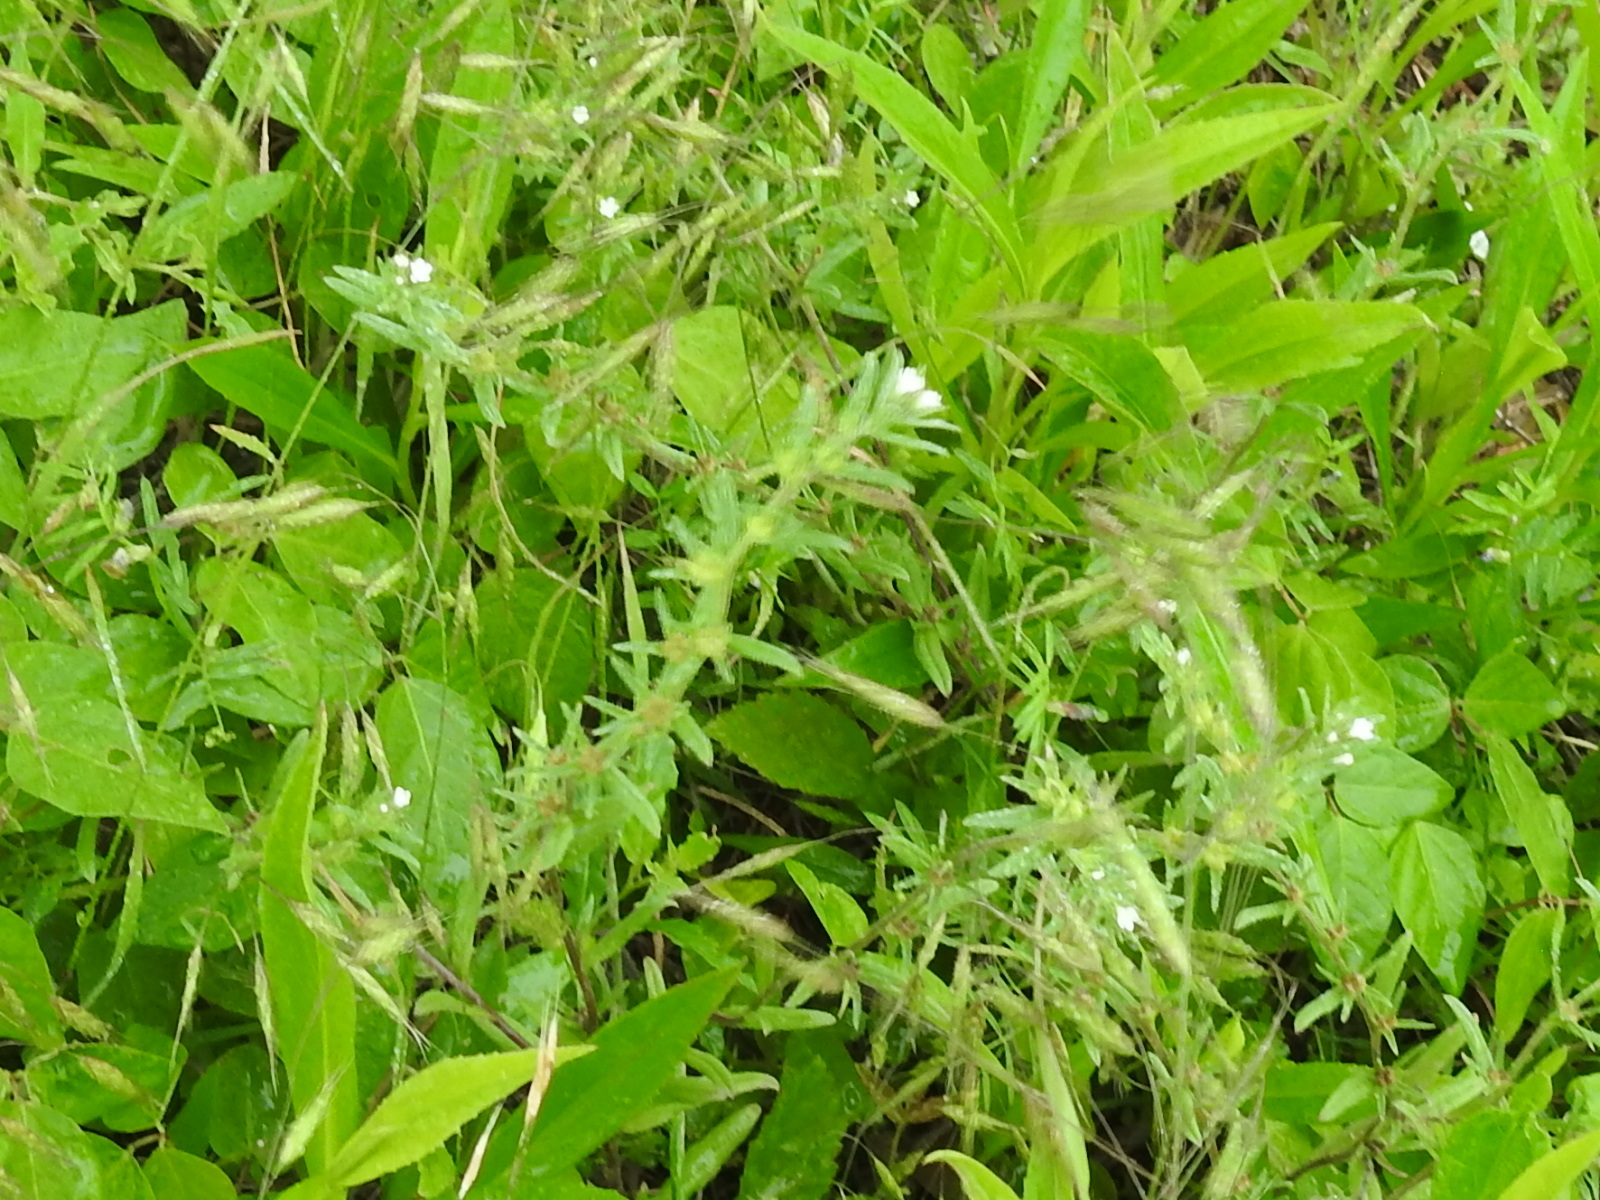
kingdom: Plantae
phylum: Tracheophyta
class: Magnoliopsida
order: Boraginales
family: Boraginaceae
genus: Buglossoides
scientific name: Buglossoides arvensis
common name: Corn gromwell
